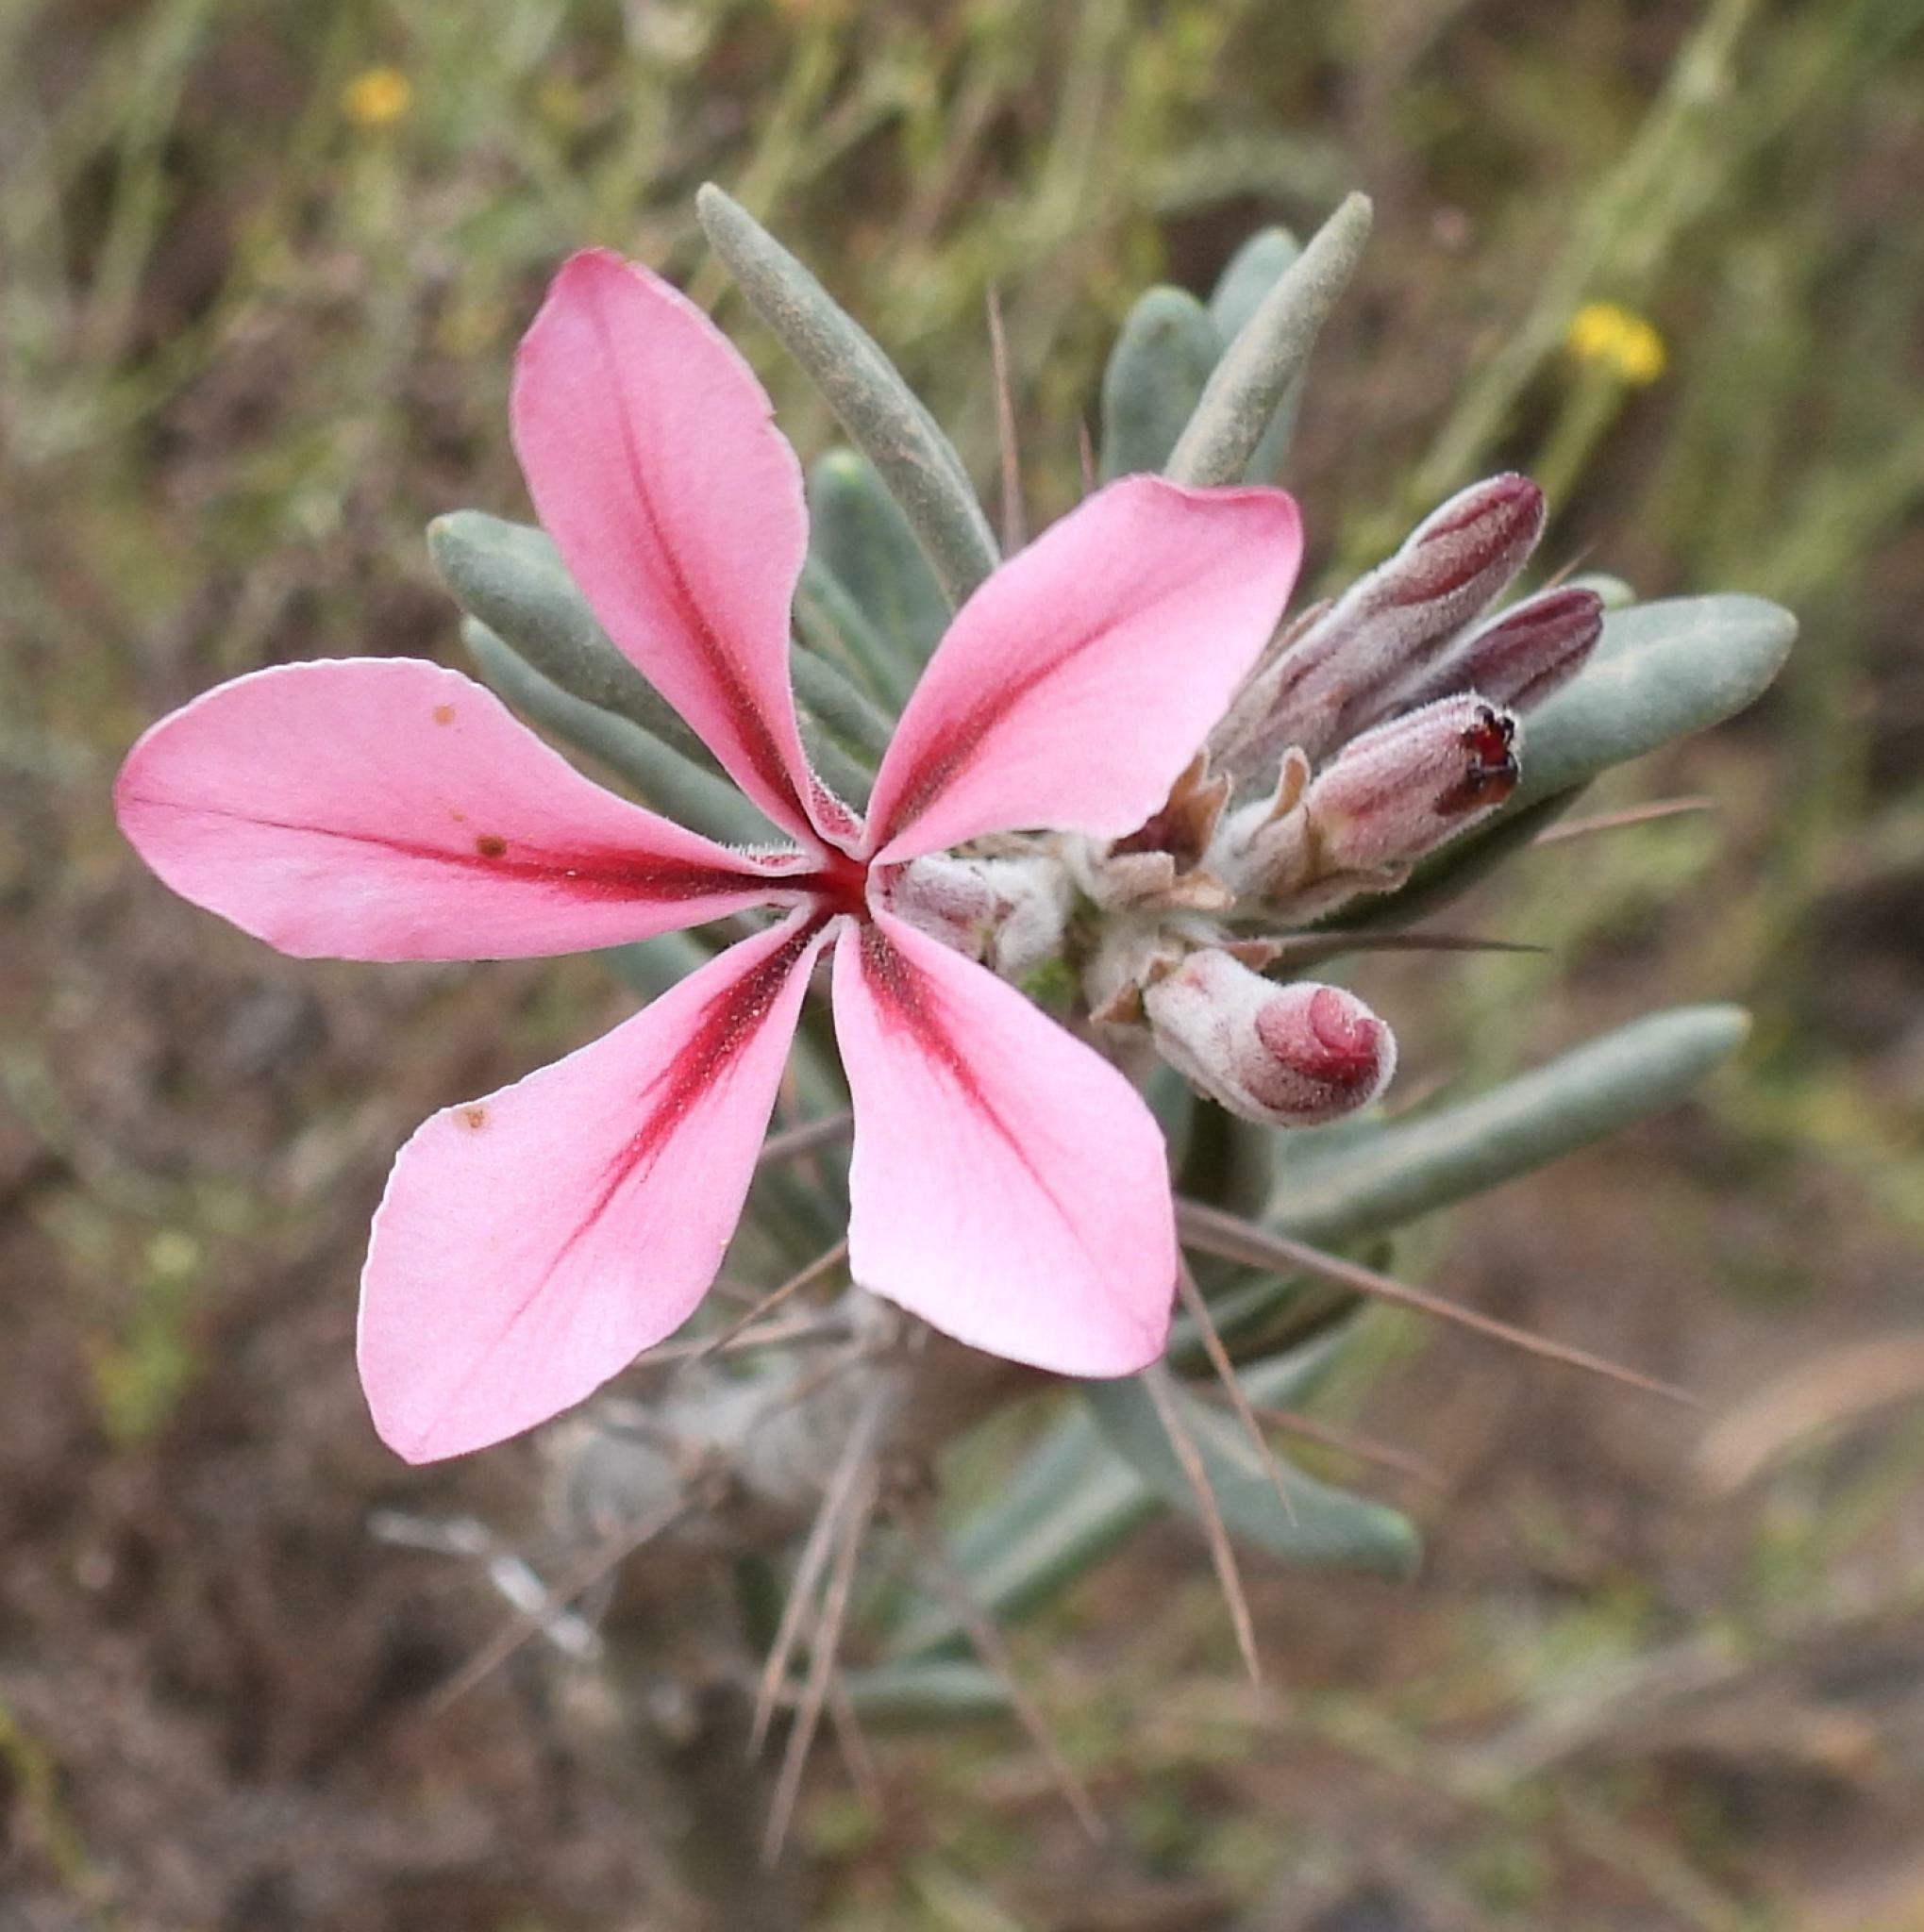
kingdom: Plantae
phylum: Tracheophyta
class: Magnoliopsida
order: Gentianales
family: Apocynaceae
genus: Pachypodium
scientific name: Pachypodium succulentum
